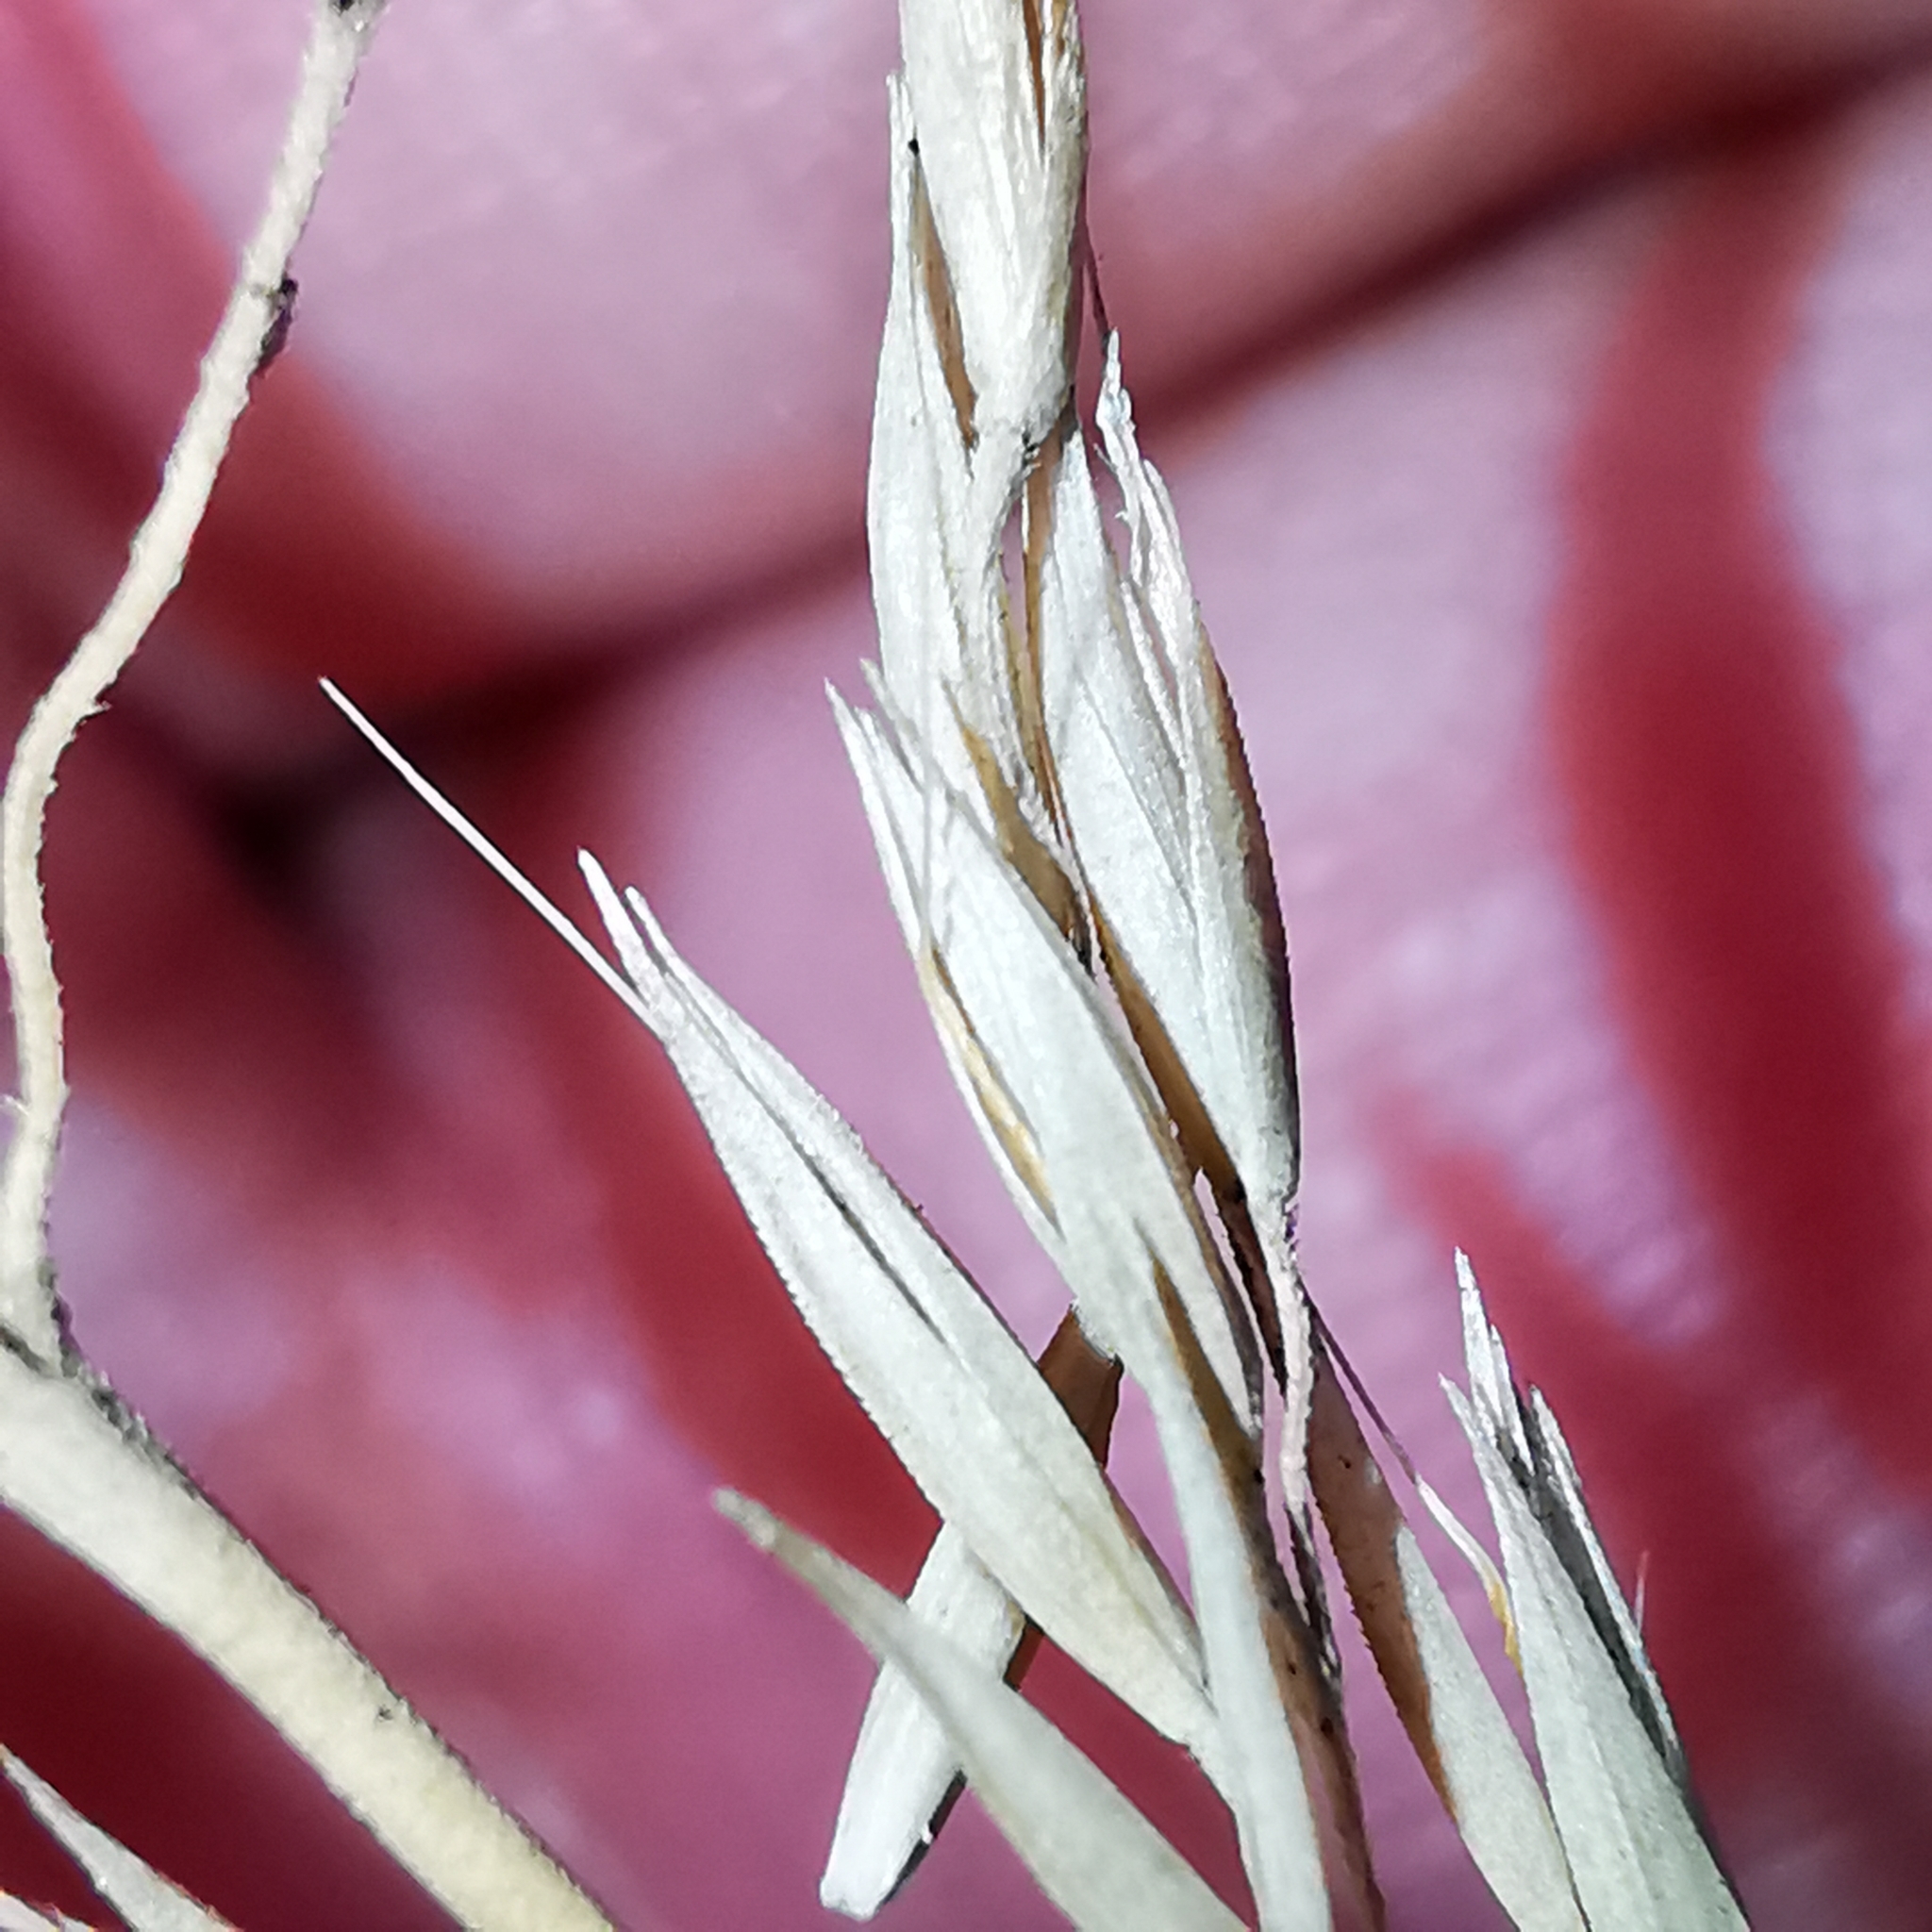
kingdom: Plantae
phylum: Tracheophyta
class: Liliopsida
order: Poales
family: Poaceae
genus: Calamagrostis
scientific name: Calamagrostis arundinacea
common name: Metskastik
